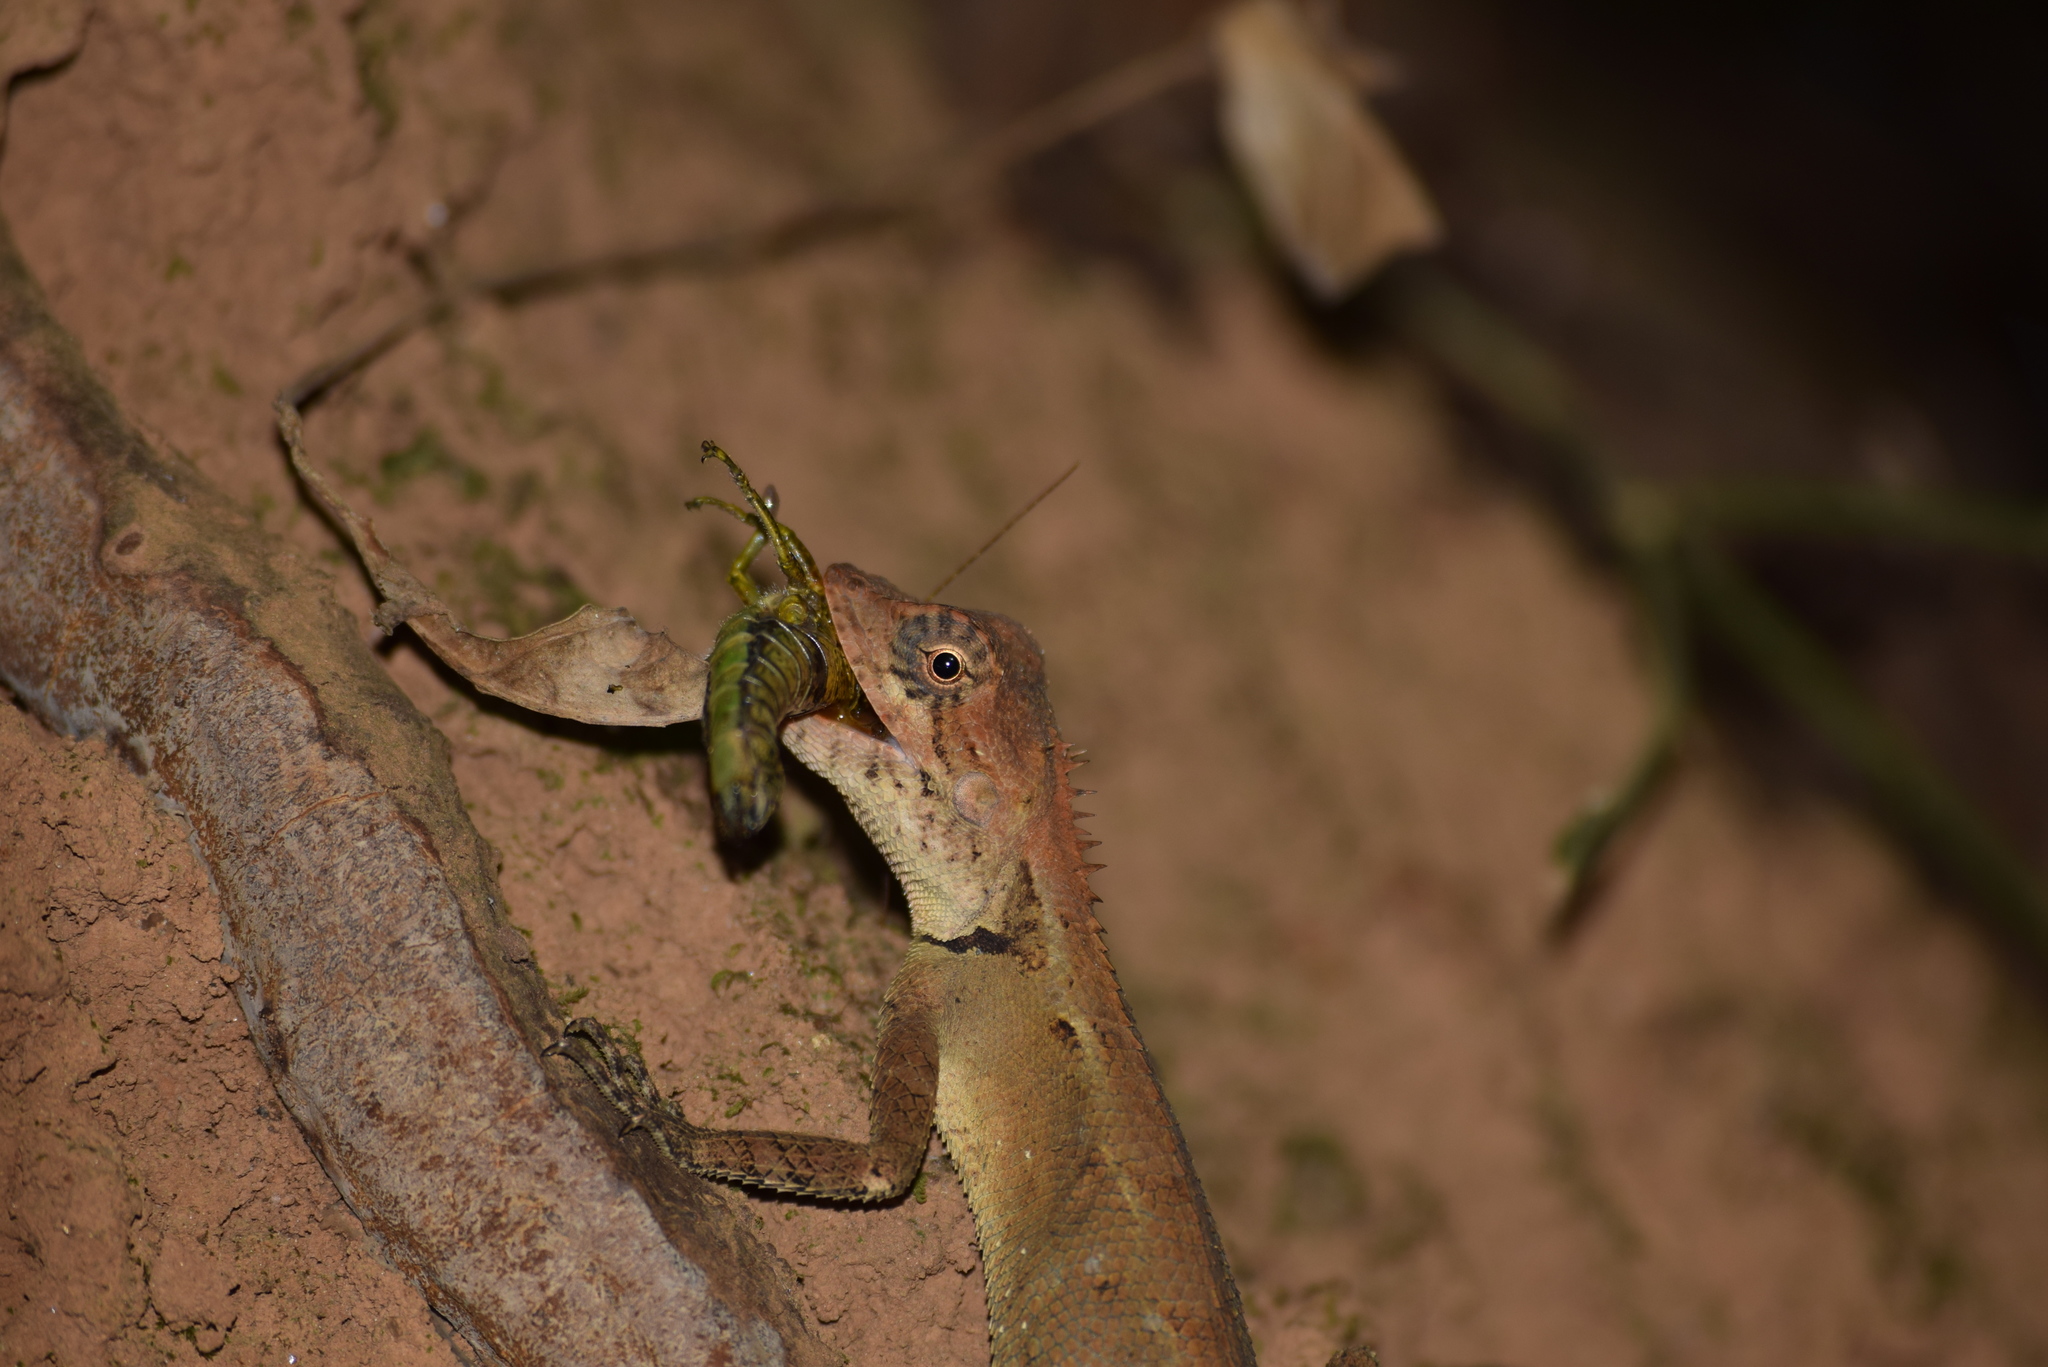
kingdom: Animalia
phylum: Chordata
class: Squamata
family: Agamidae
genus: Monilesaurus
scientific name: Monilesaurus rouxii
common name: Roux's forest lizard
